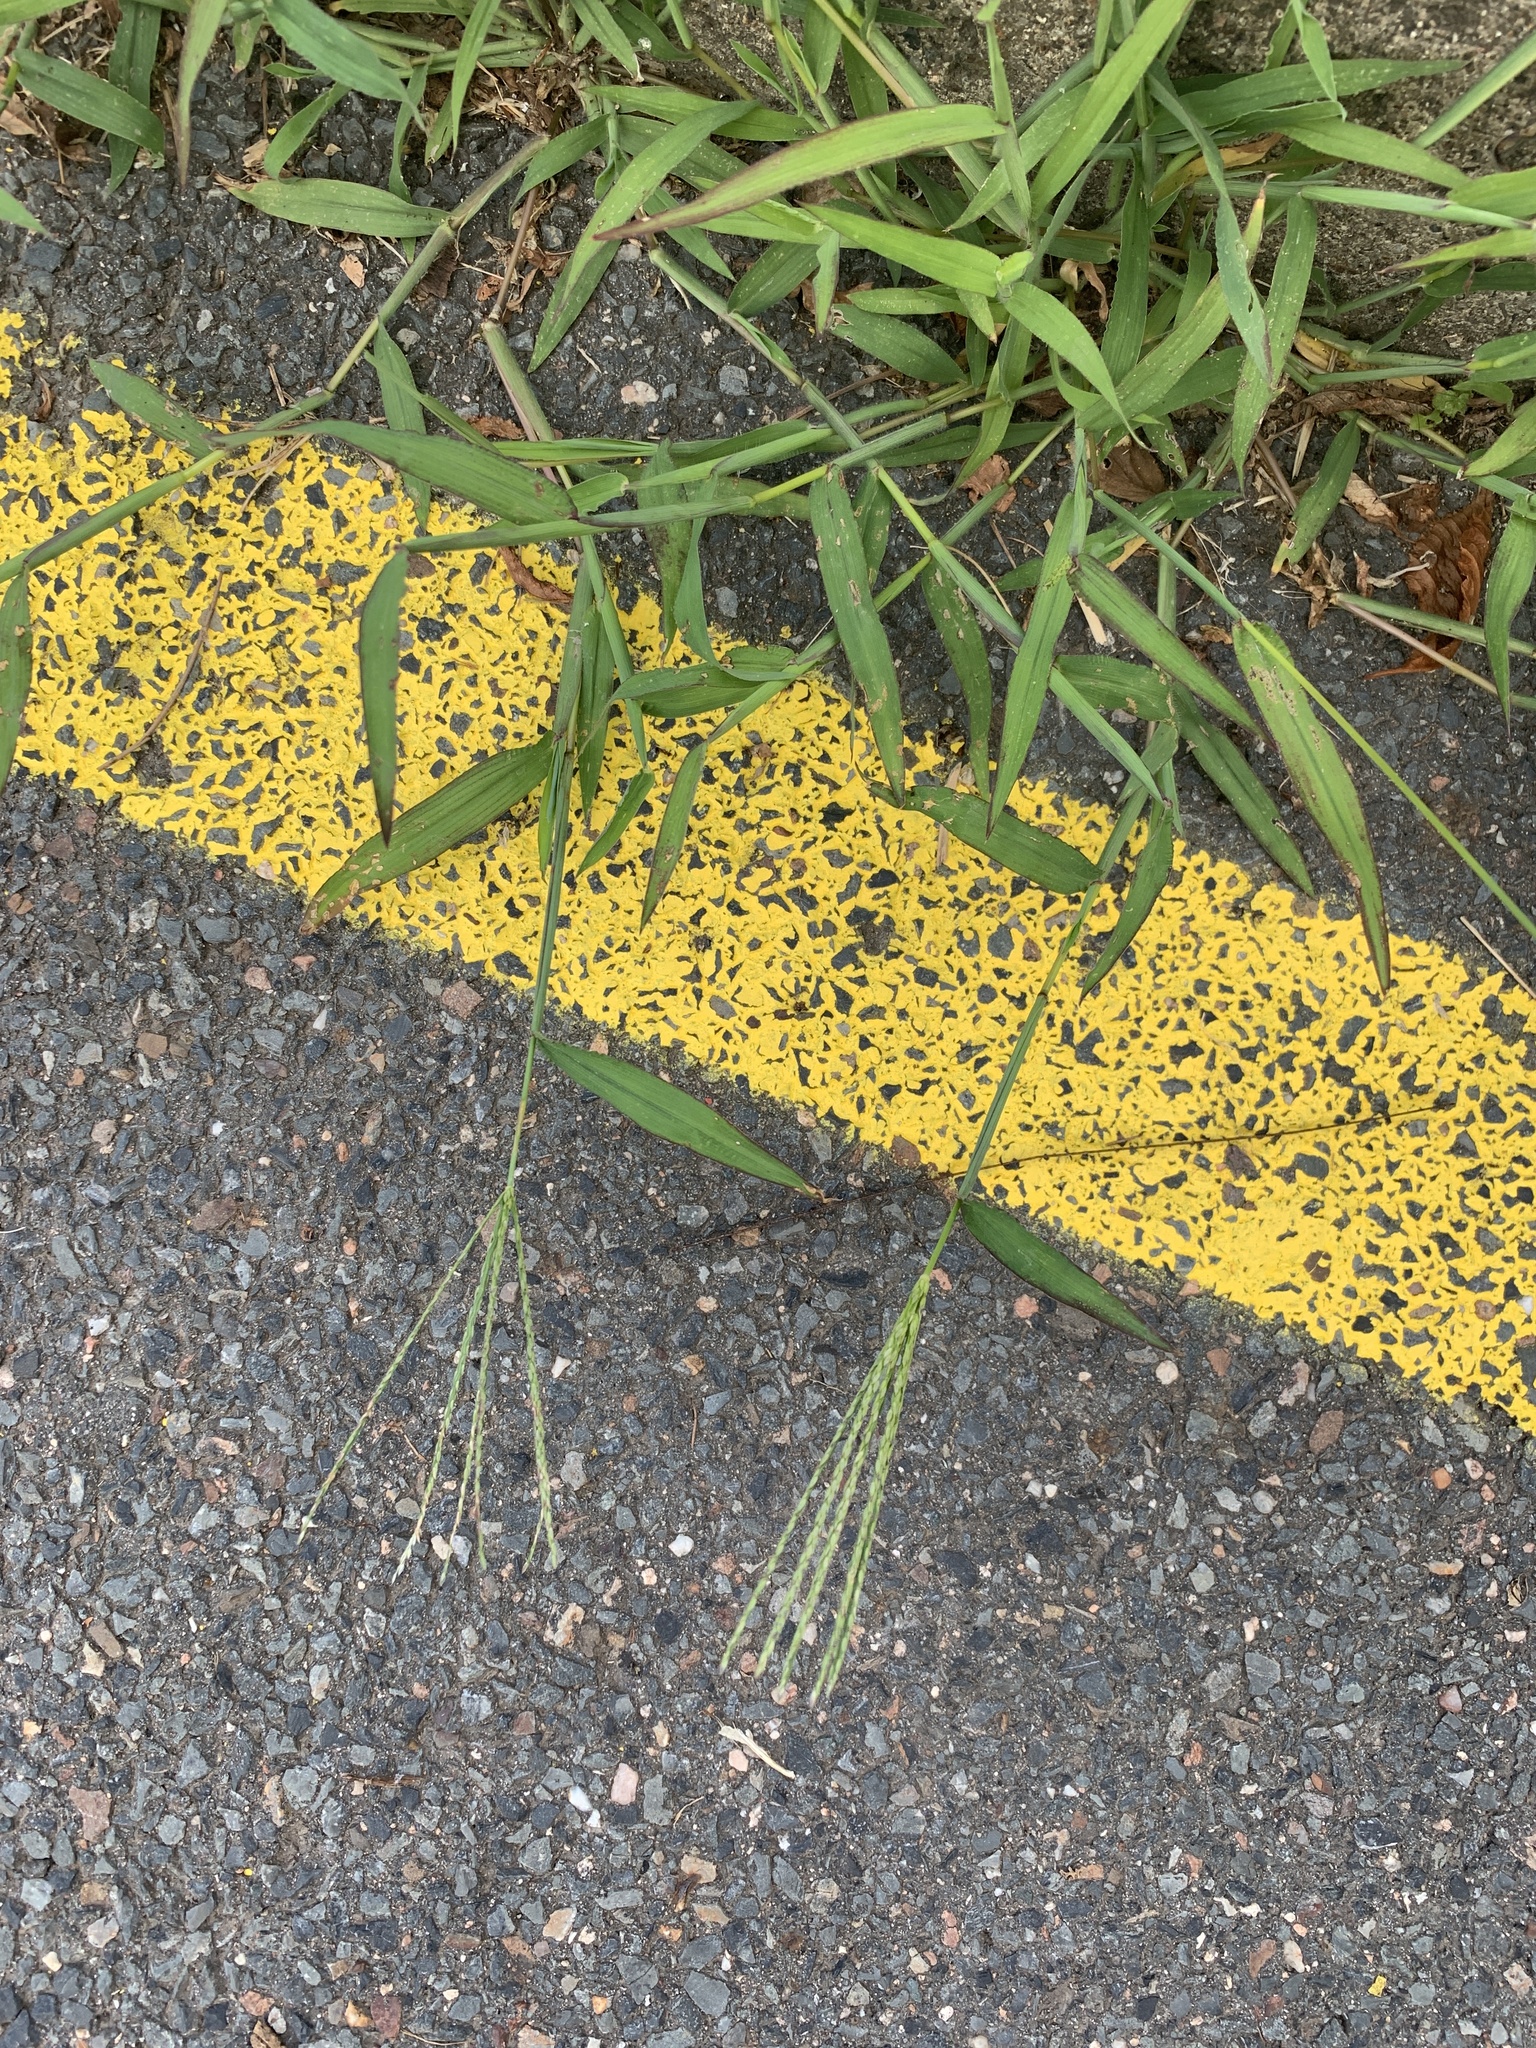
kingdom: Plantae
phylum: Tracheophyta
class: Liliopsida
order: Poales
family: Poaceae
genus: Digitaria
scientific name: Digitaria sanguinalis
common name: Hairy crabgrass
